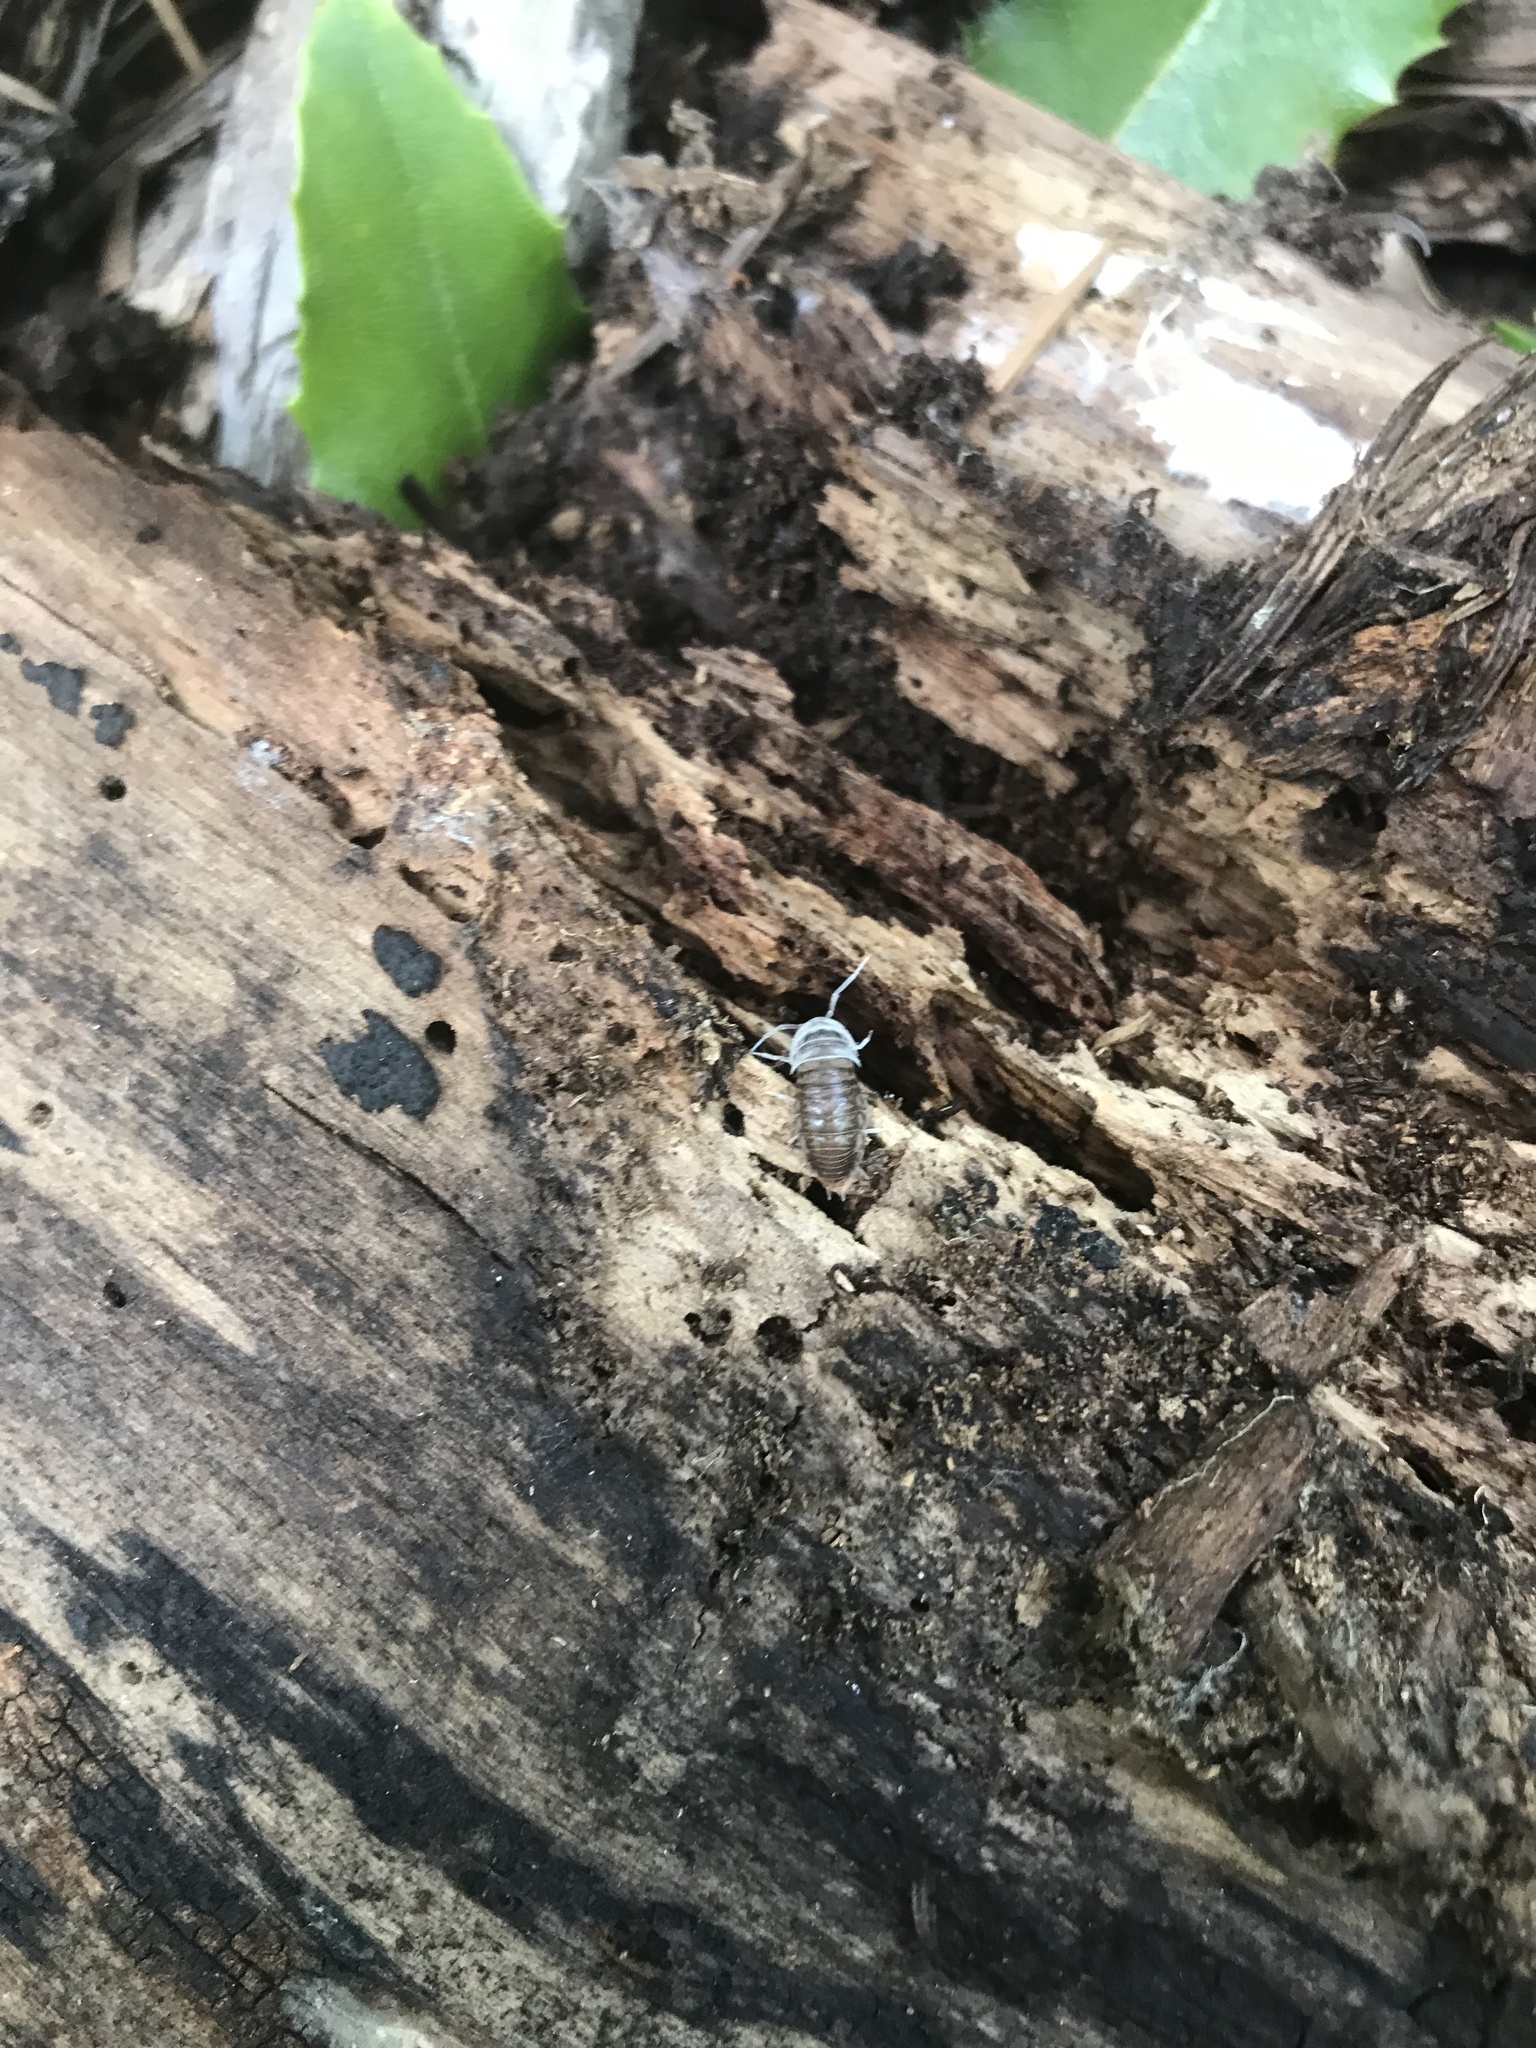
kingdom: Animalia
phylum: Arthropoda
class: Malacostraca
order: Isopoda
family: Cylisticidae
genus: Cylisticus
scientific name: Cylisticus convexus
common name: Curly woodlouse
